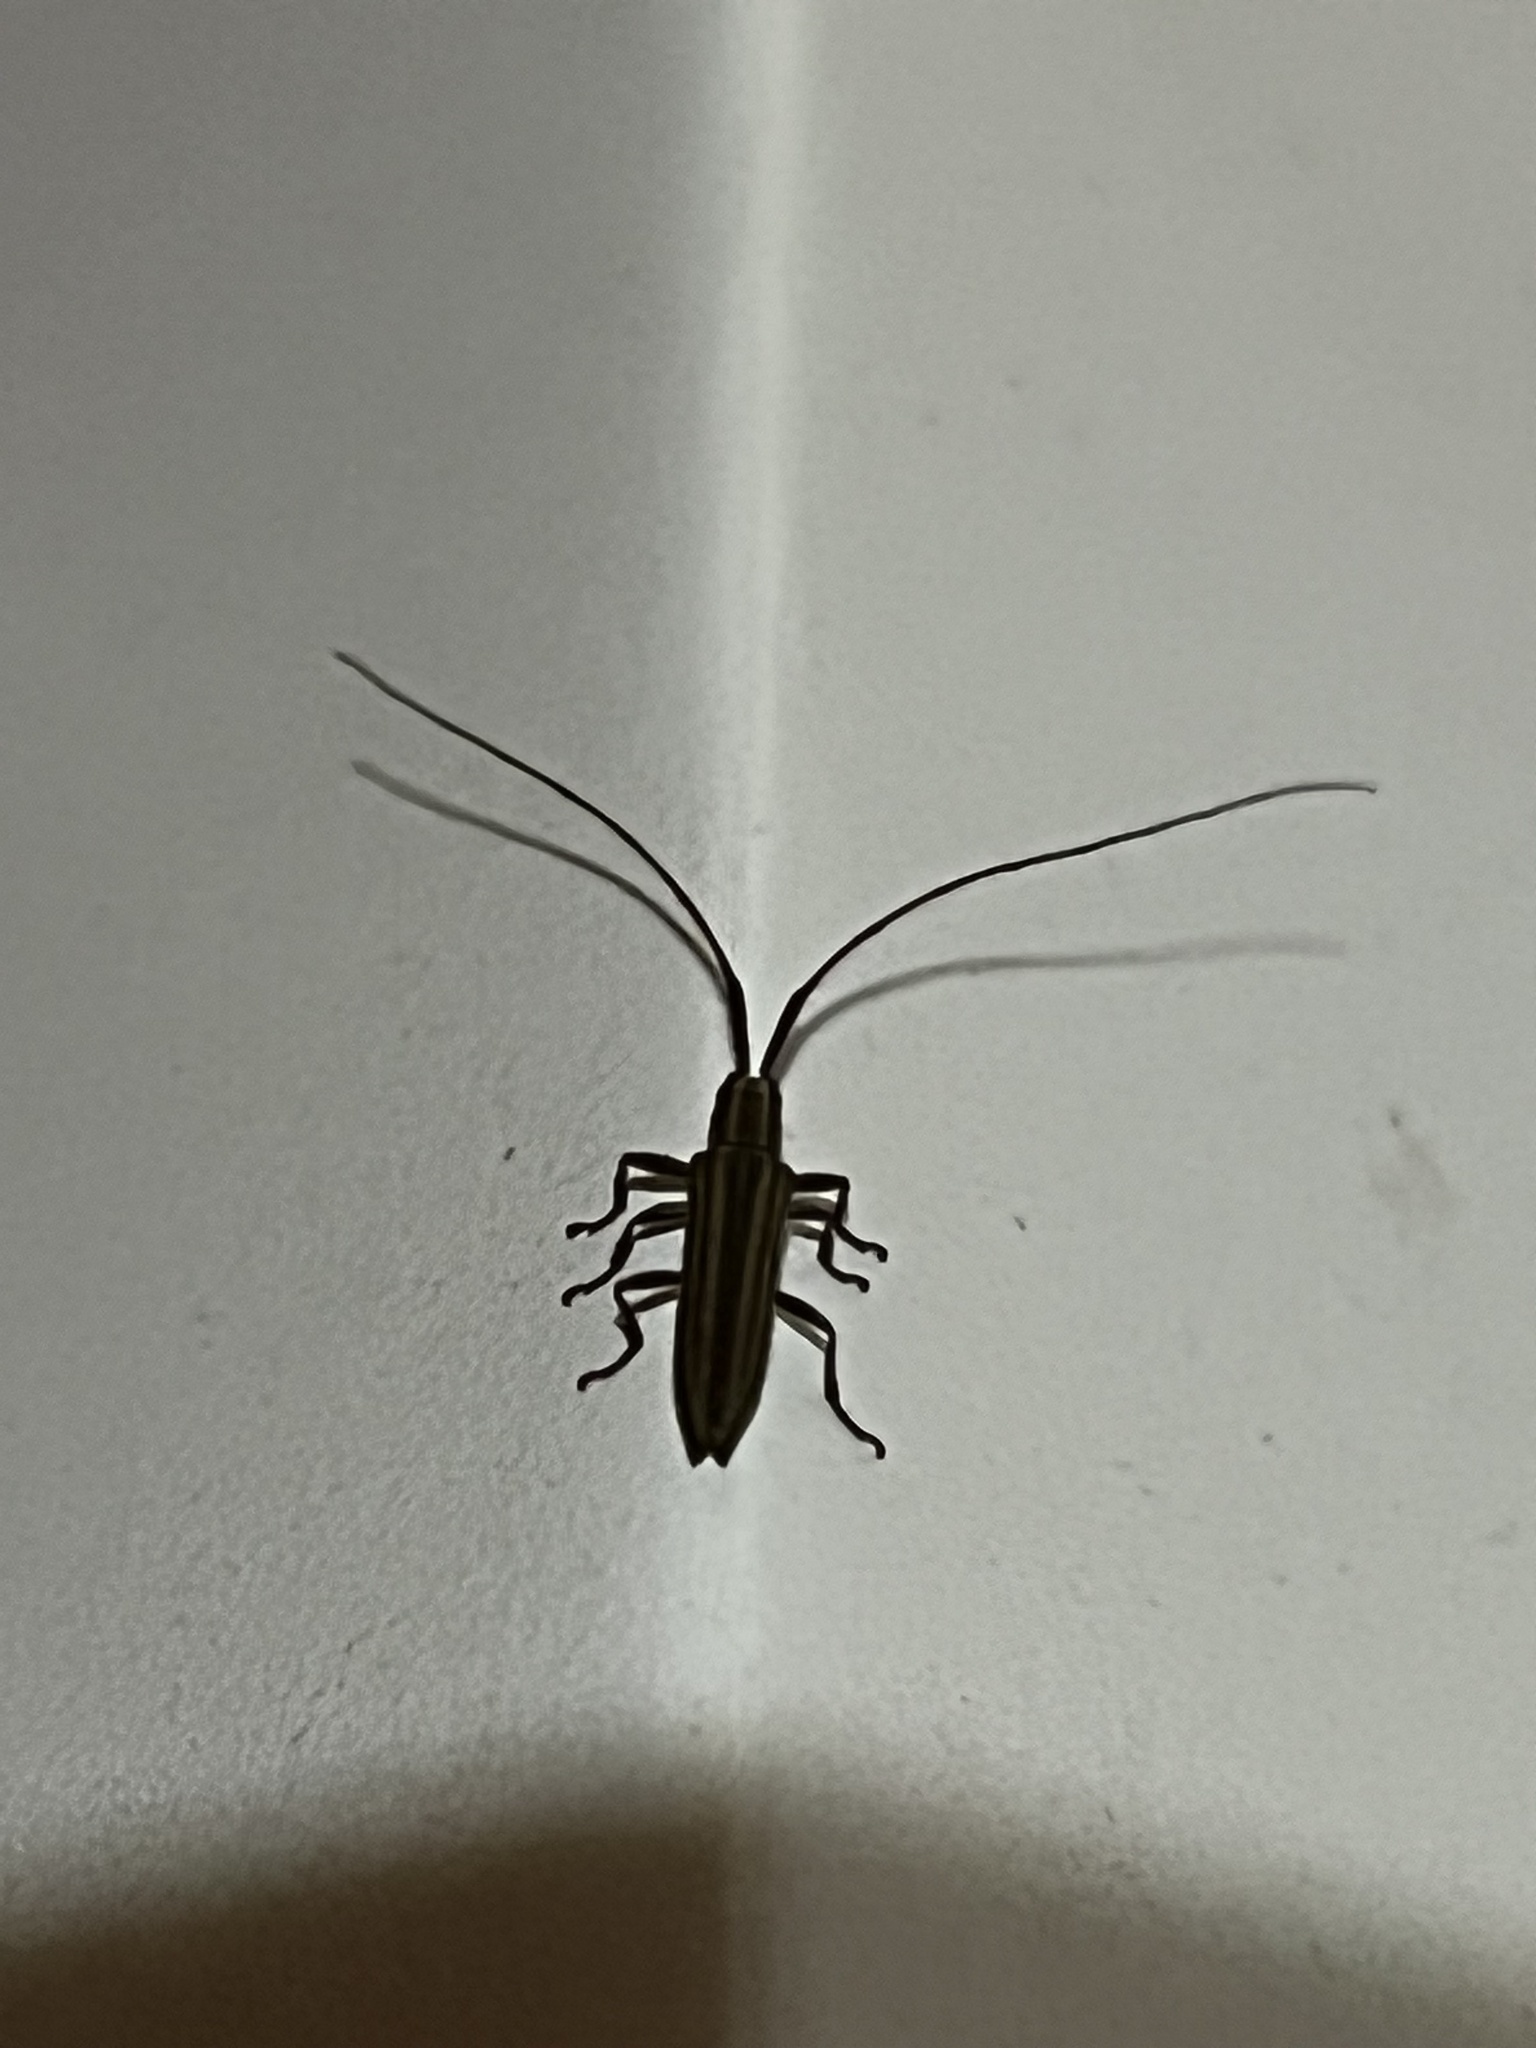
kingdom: Animalia
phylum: Arthropoda
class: Insecta
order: Coleoptera
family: Cerambycidae
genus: Hippopsis
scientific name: Hippopsis
